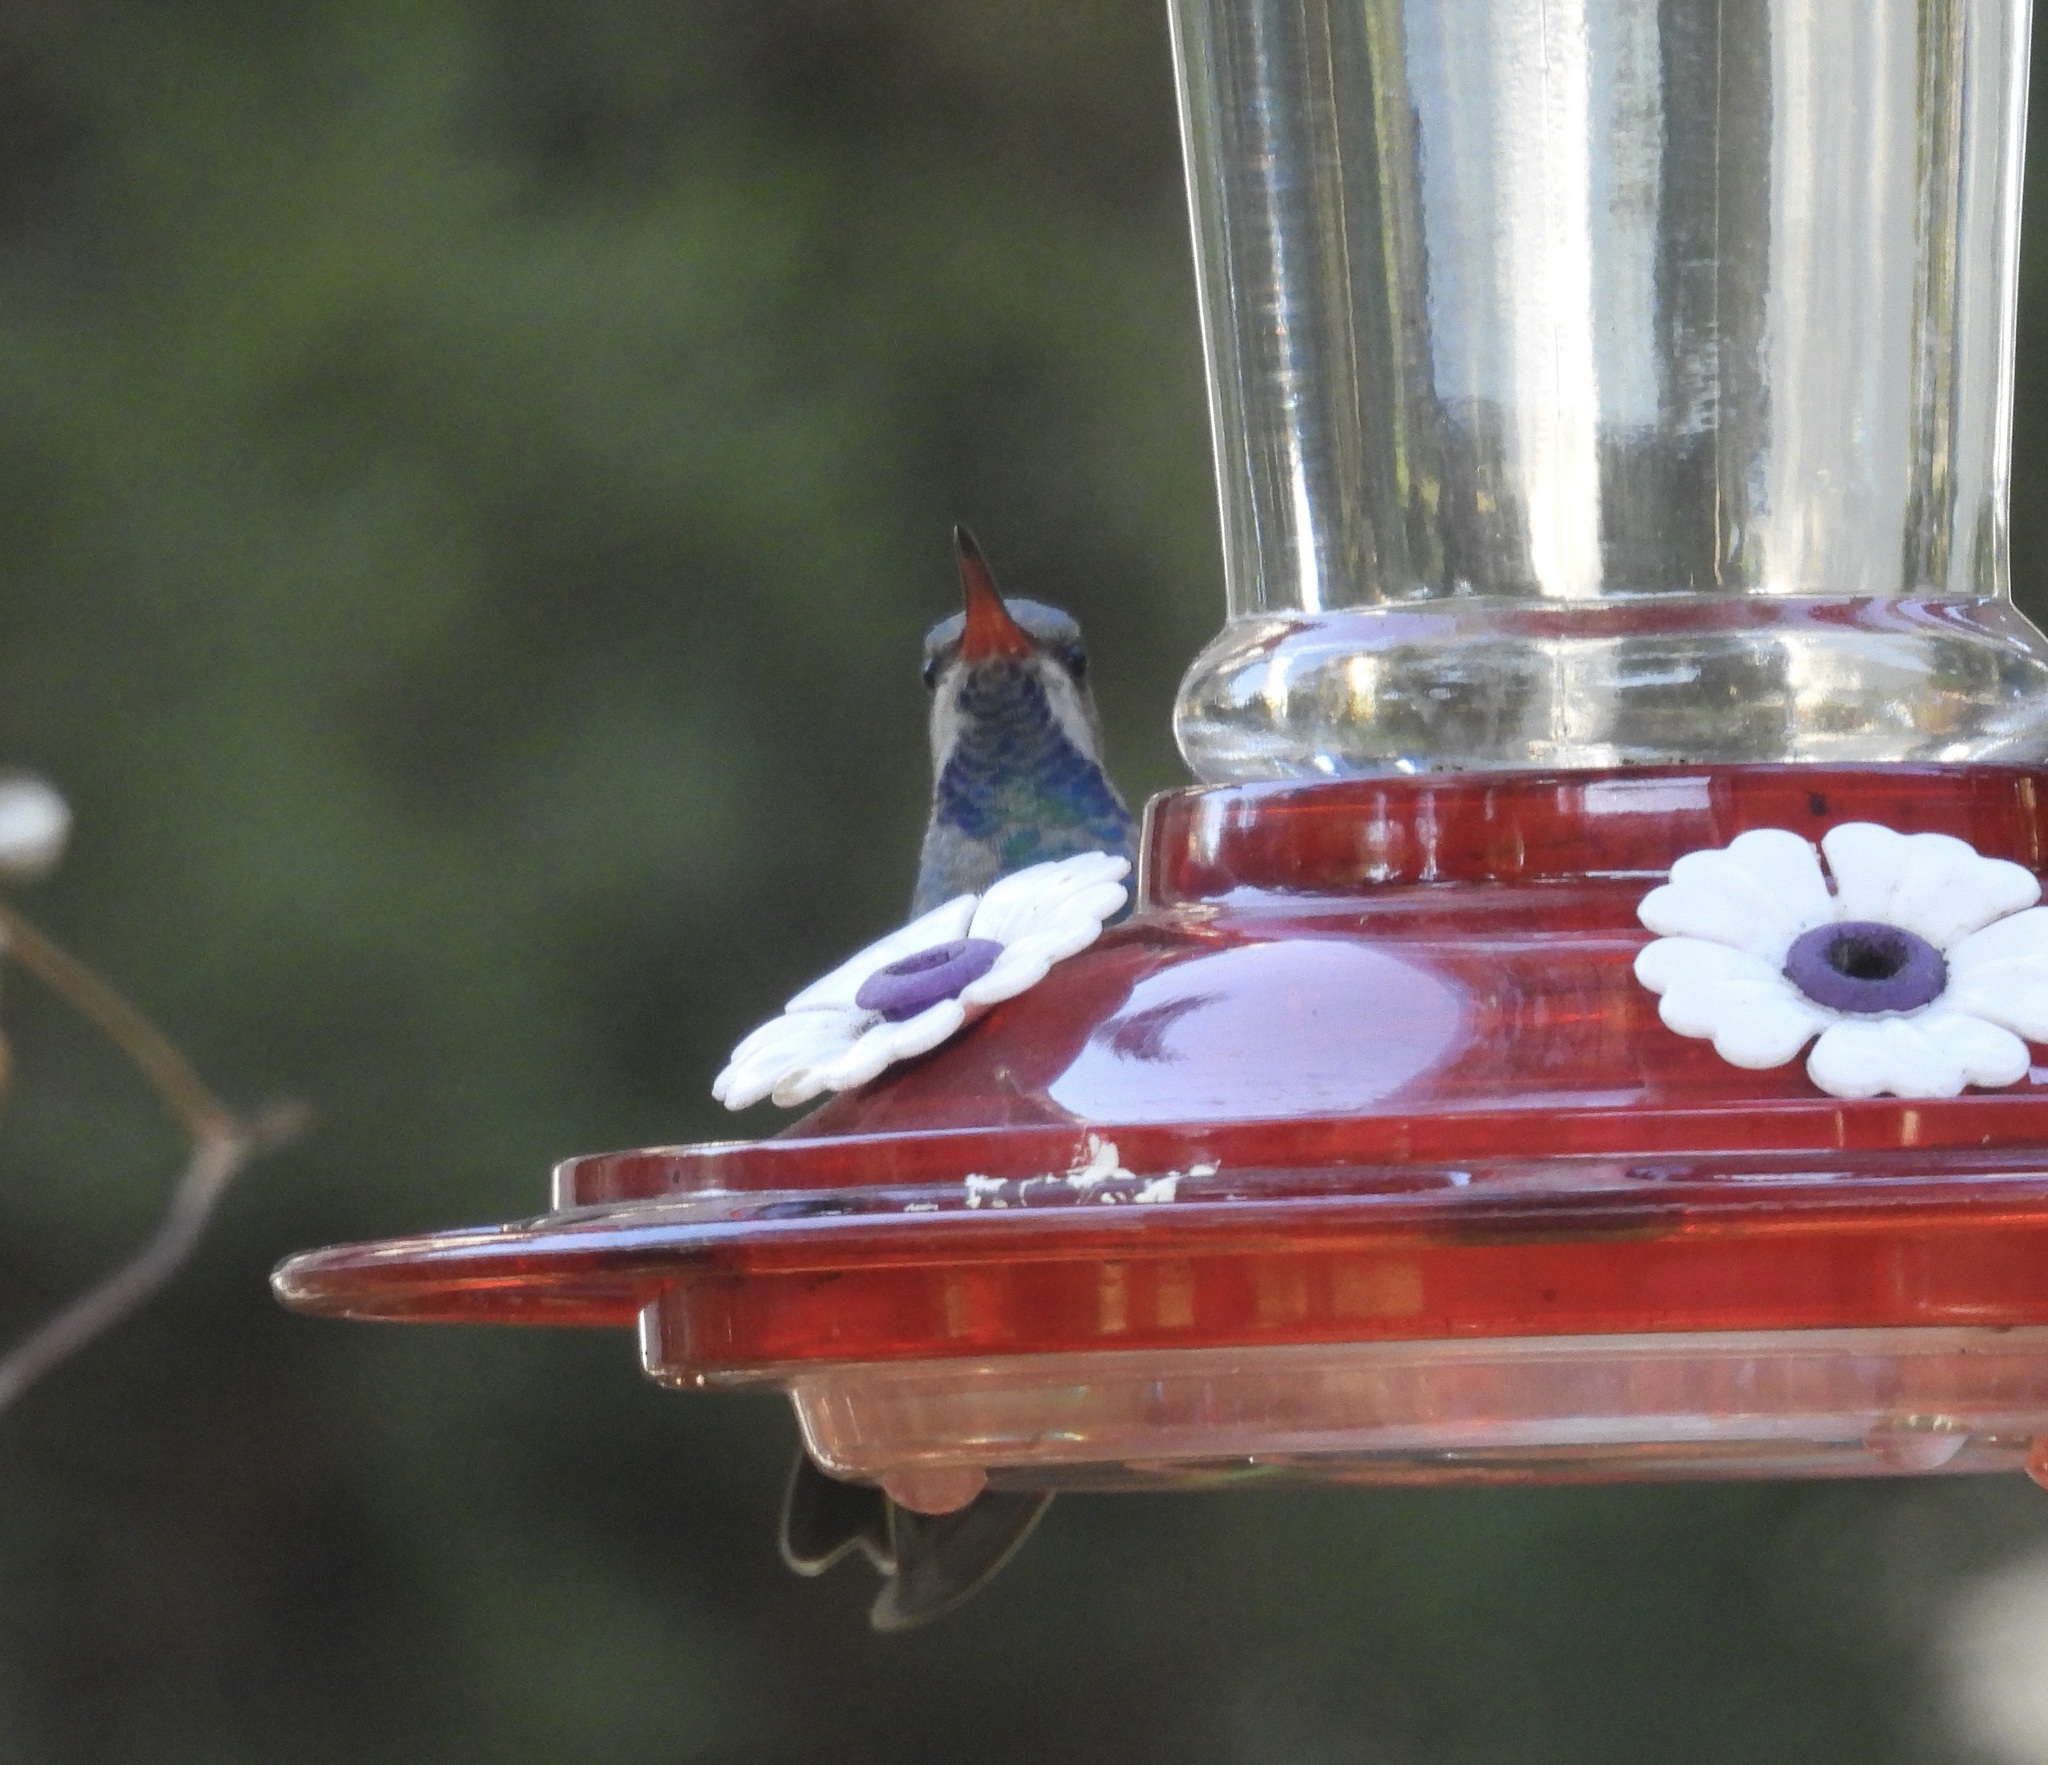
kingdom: Animalia
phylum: Chordata
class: Aves
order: Apodiformes
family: Trochilidae
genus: Cynanthus
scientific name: Cynanthus latirostris
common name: Broad-billed hummingbird
